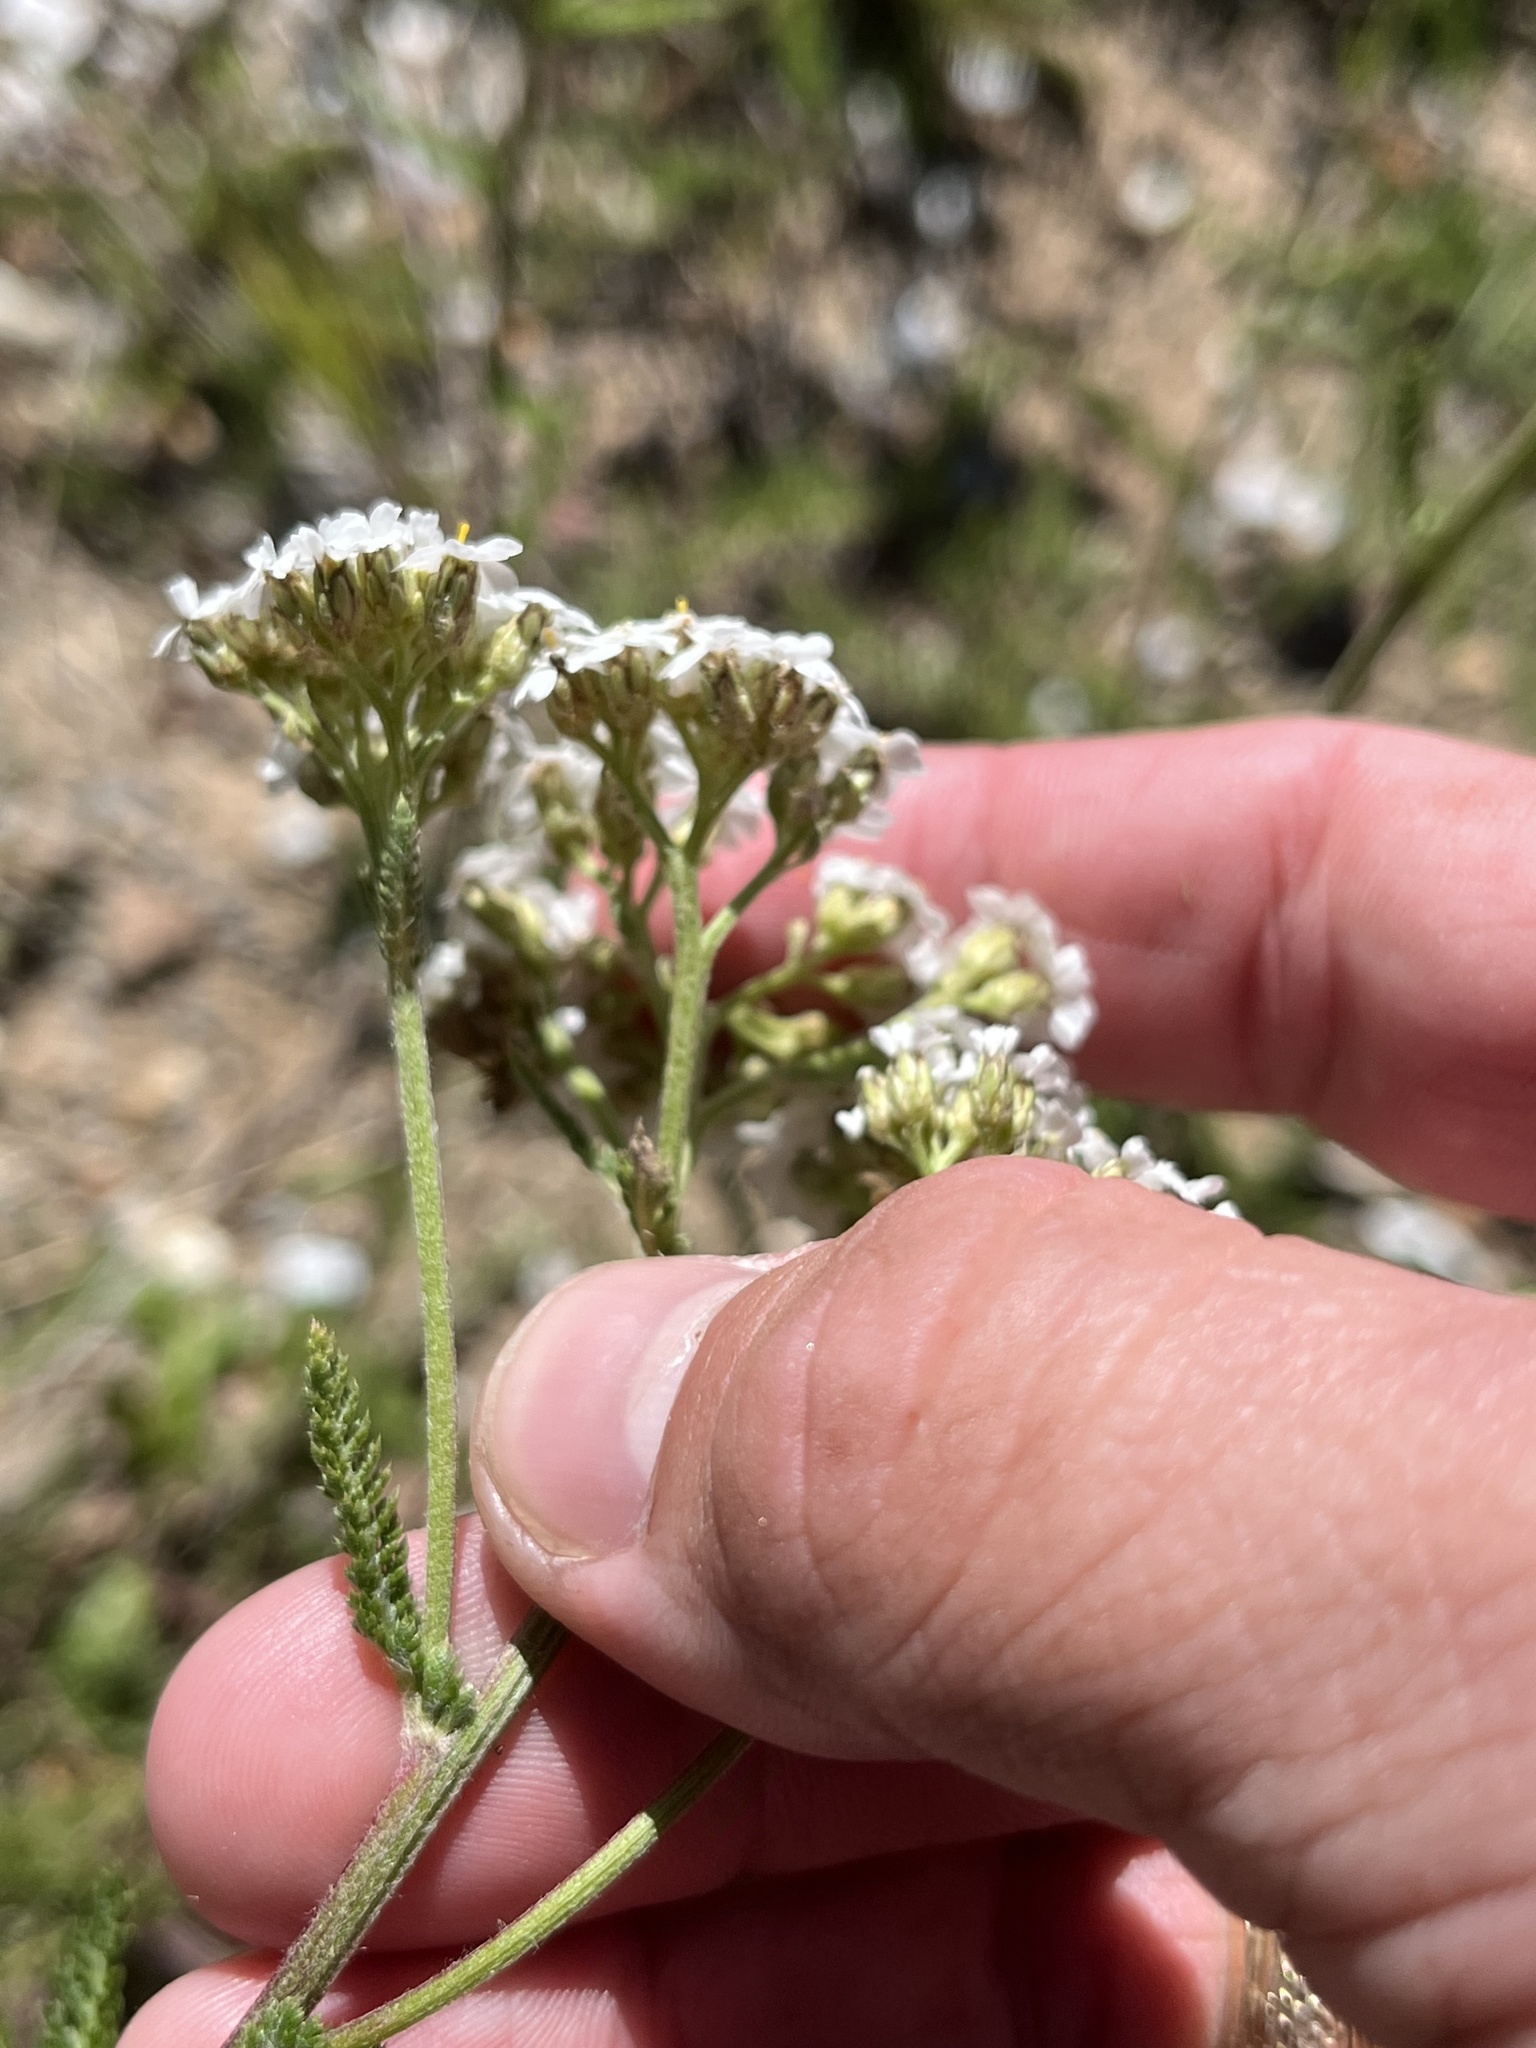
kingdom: Plantae
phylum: Tracheophyta
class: Magnoliopsida
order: Asterales
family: Asteraceae
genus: Achillea
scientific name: Achillea millefolium
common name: Yarrow
